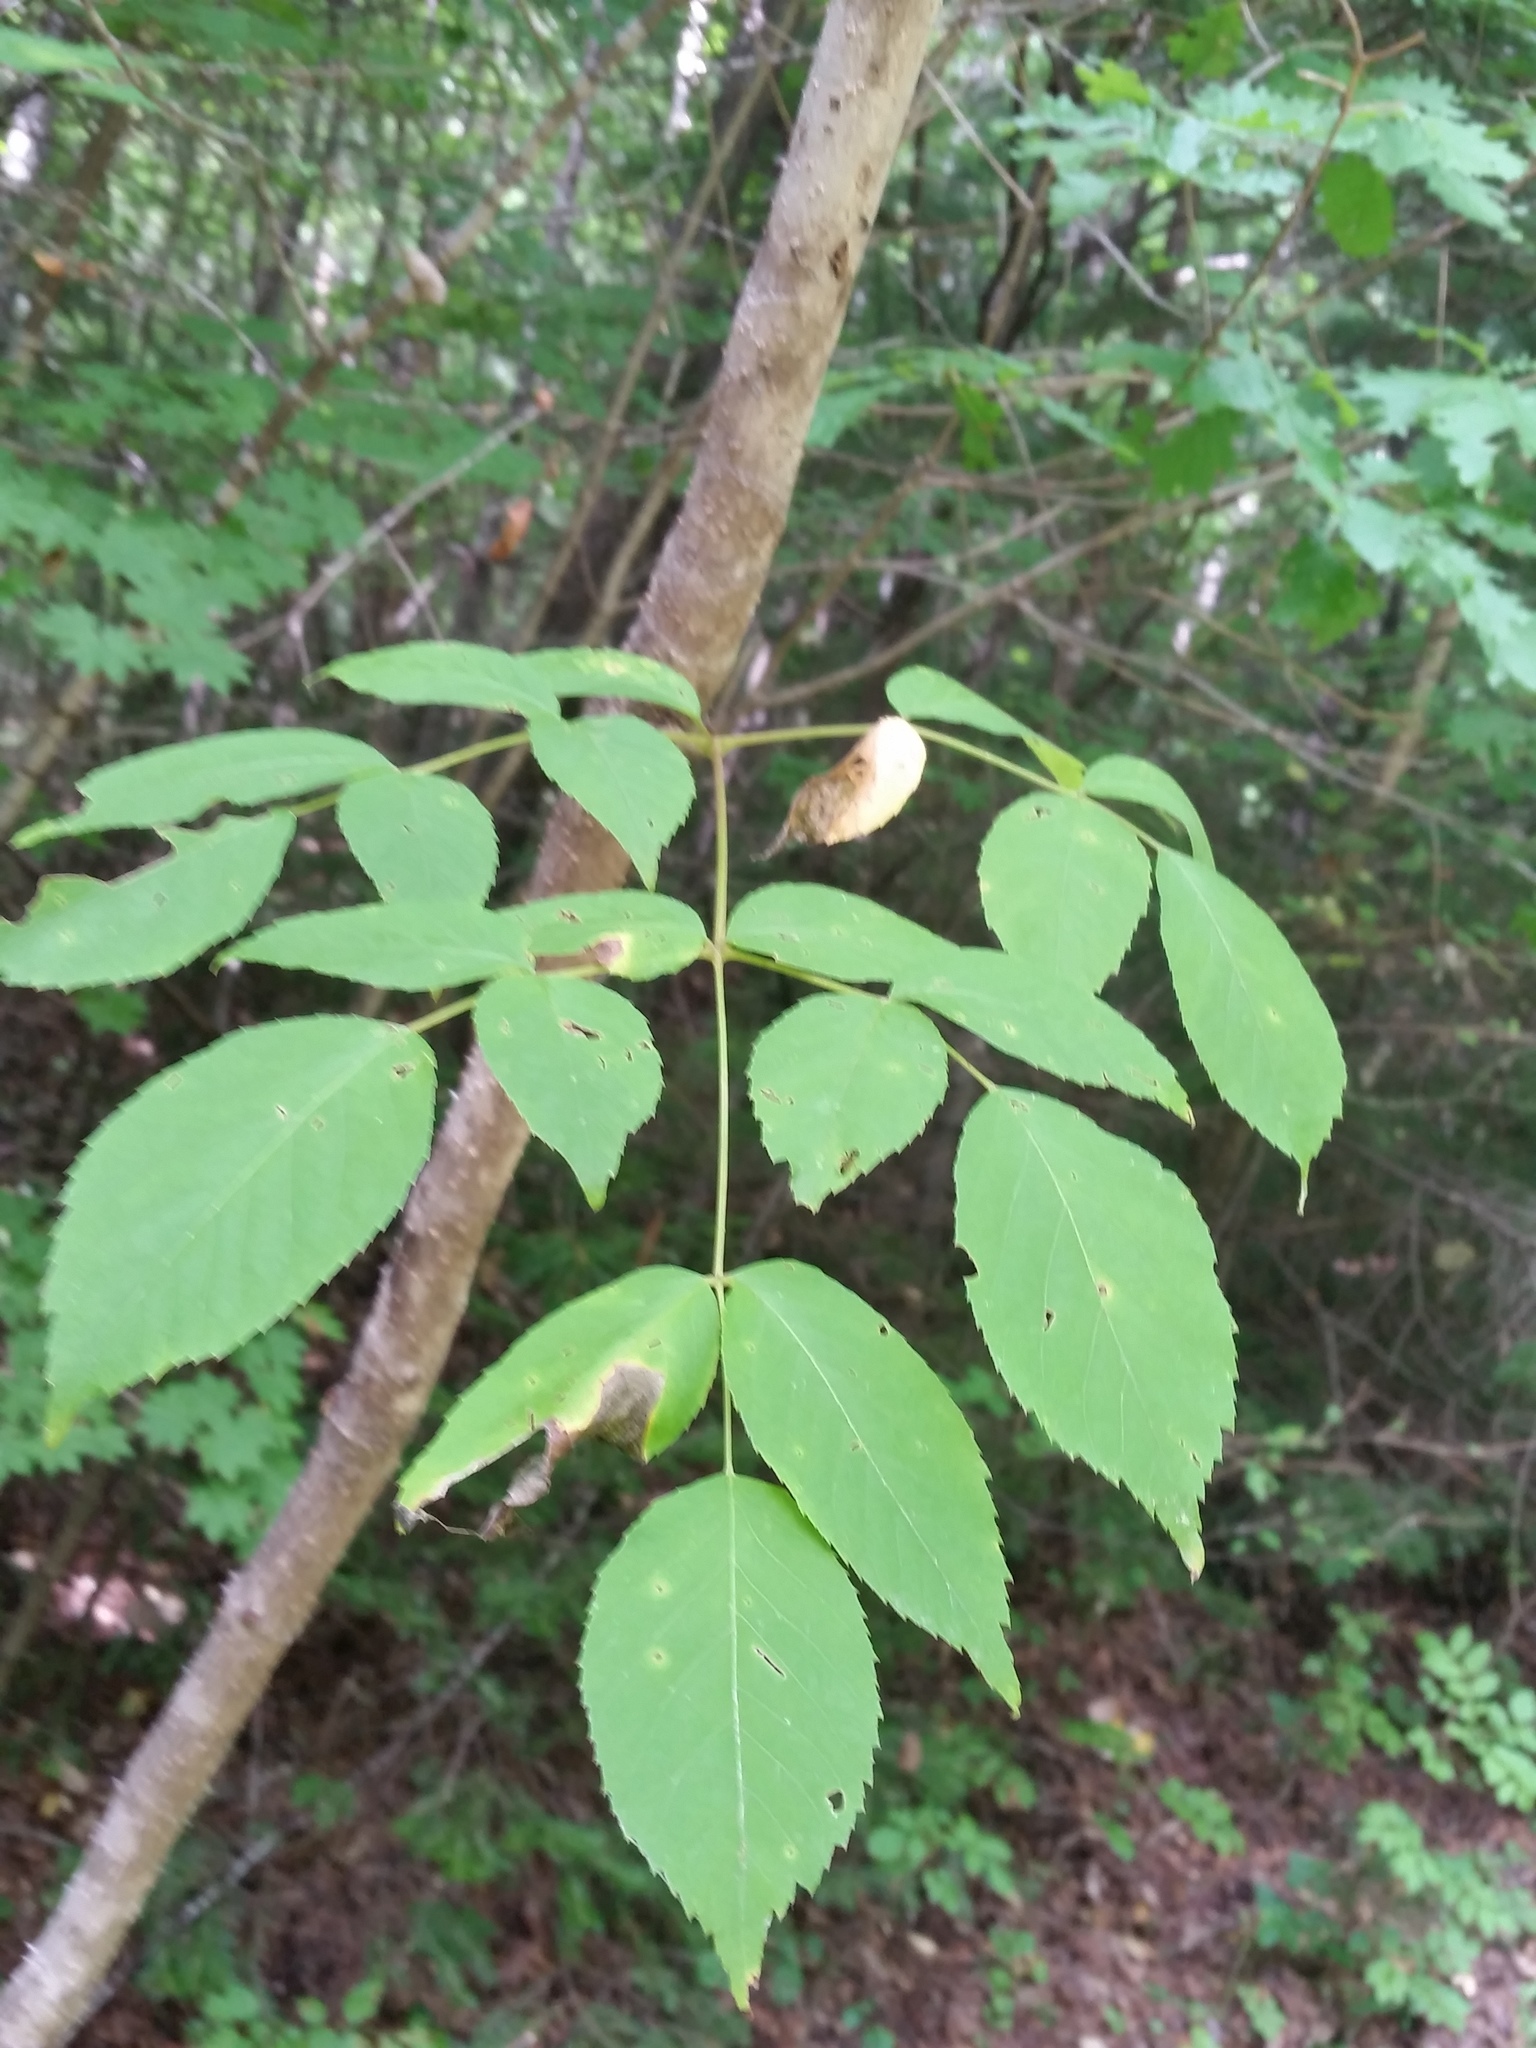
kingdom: Plantae
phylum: Tracheophyta
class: Magnoliopsida
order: Apiales
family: Araliaceae
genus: Aralia
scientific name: Aralia elata
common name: Japanese angelica-tree
